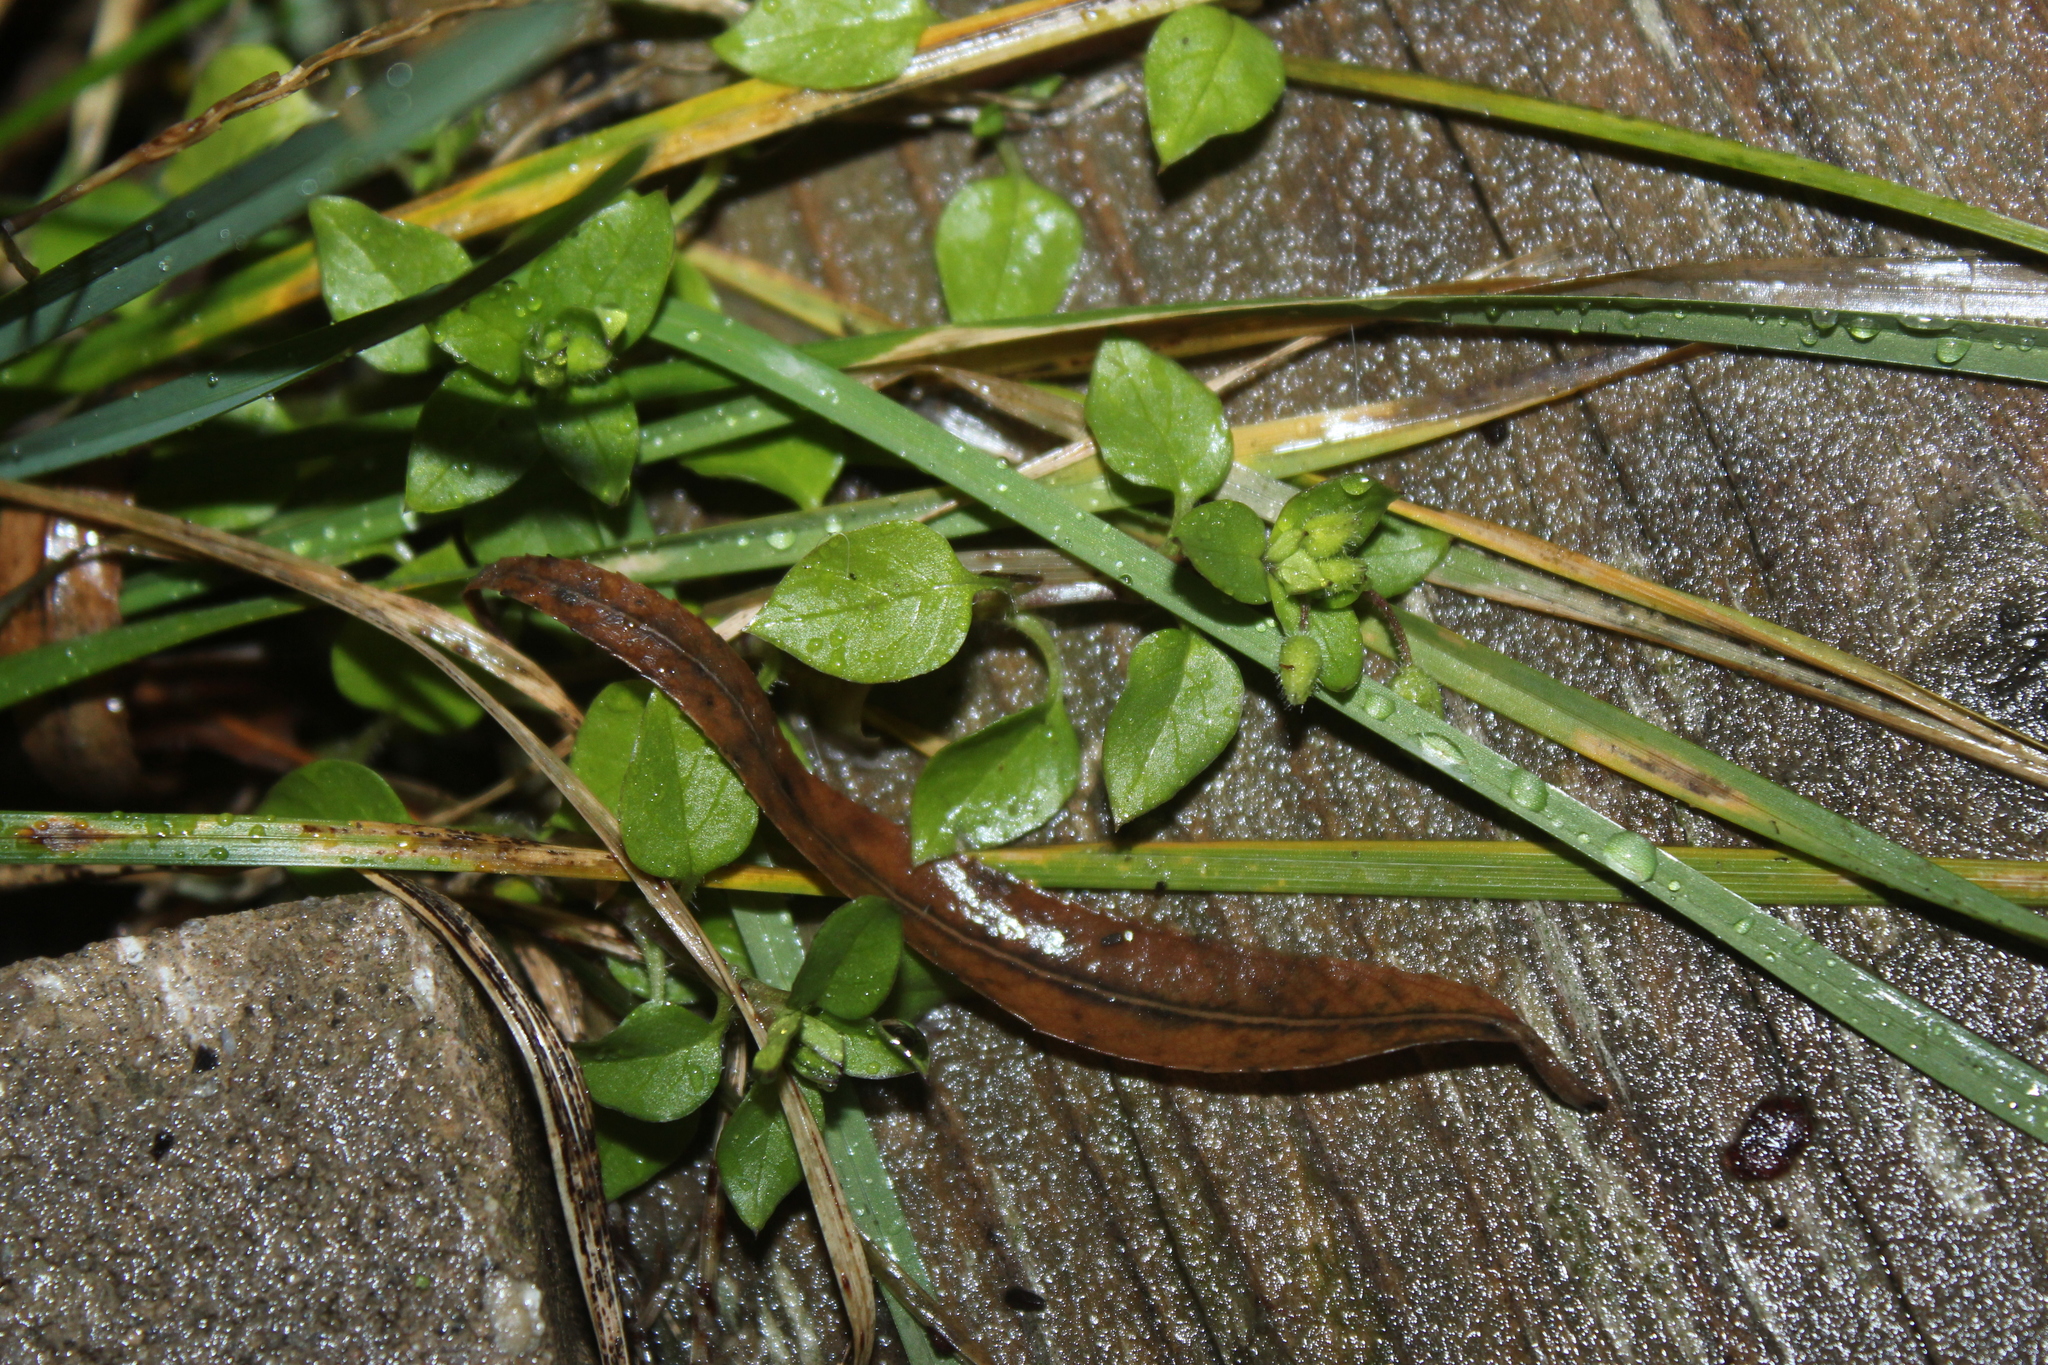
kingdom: Plantae
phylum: Tracheophyta
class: Magnoliopsida
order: Caryophyllales
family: Caryophyllaceae
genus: Stellaria
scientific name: Stellaria media
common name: Common chickweed
